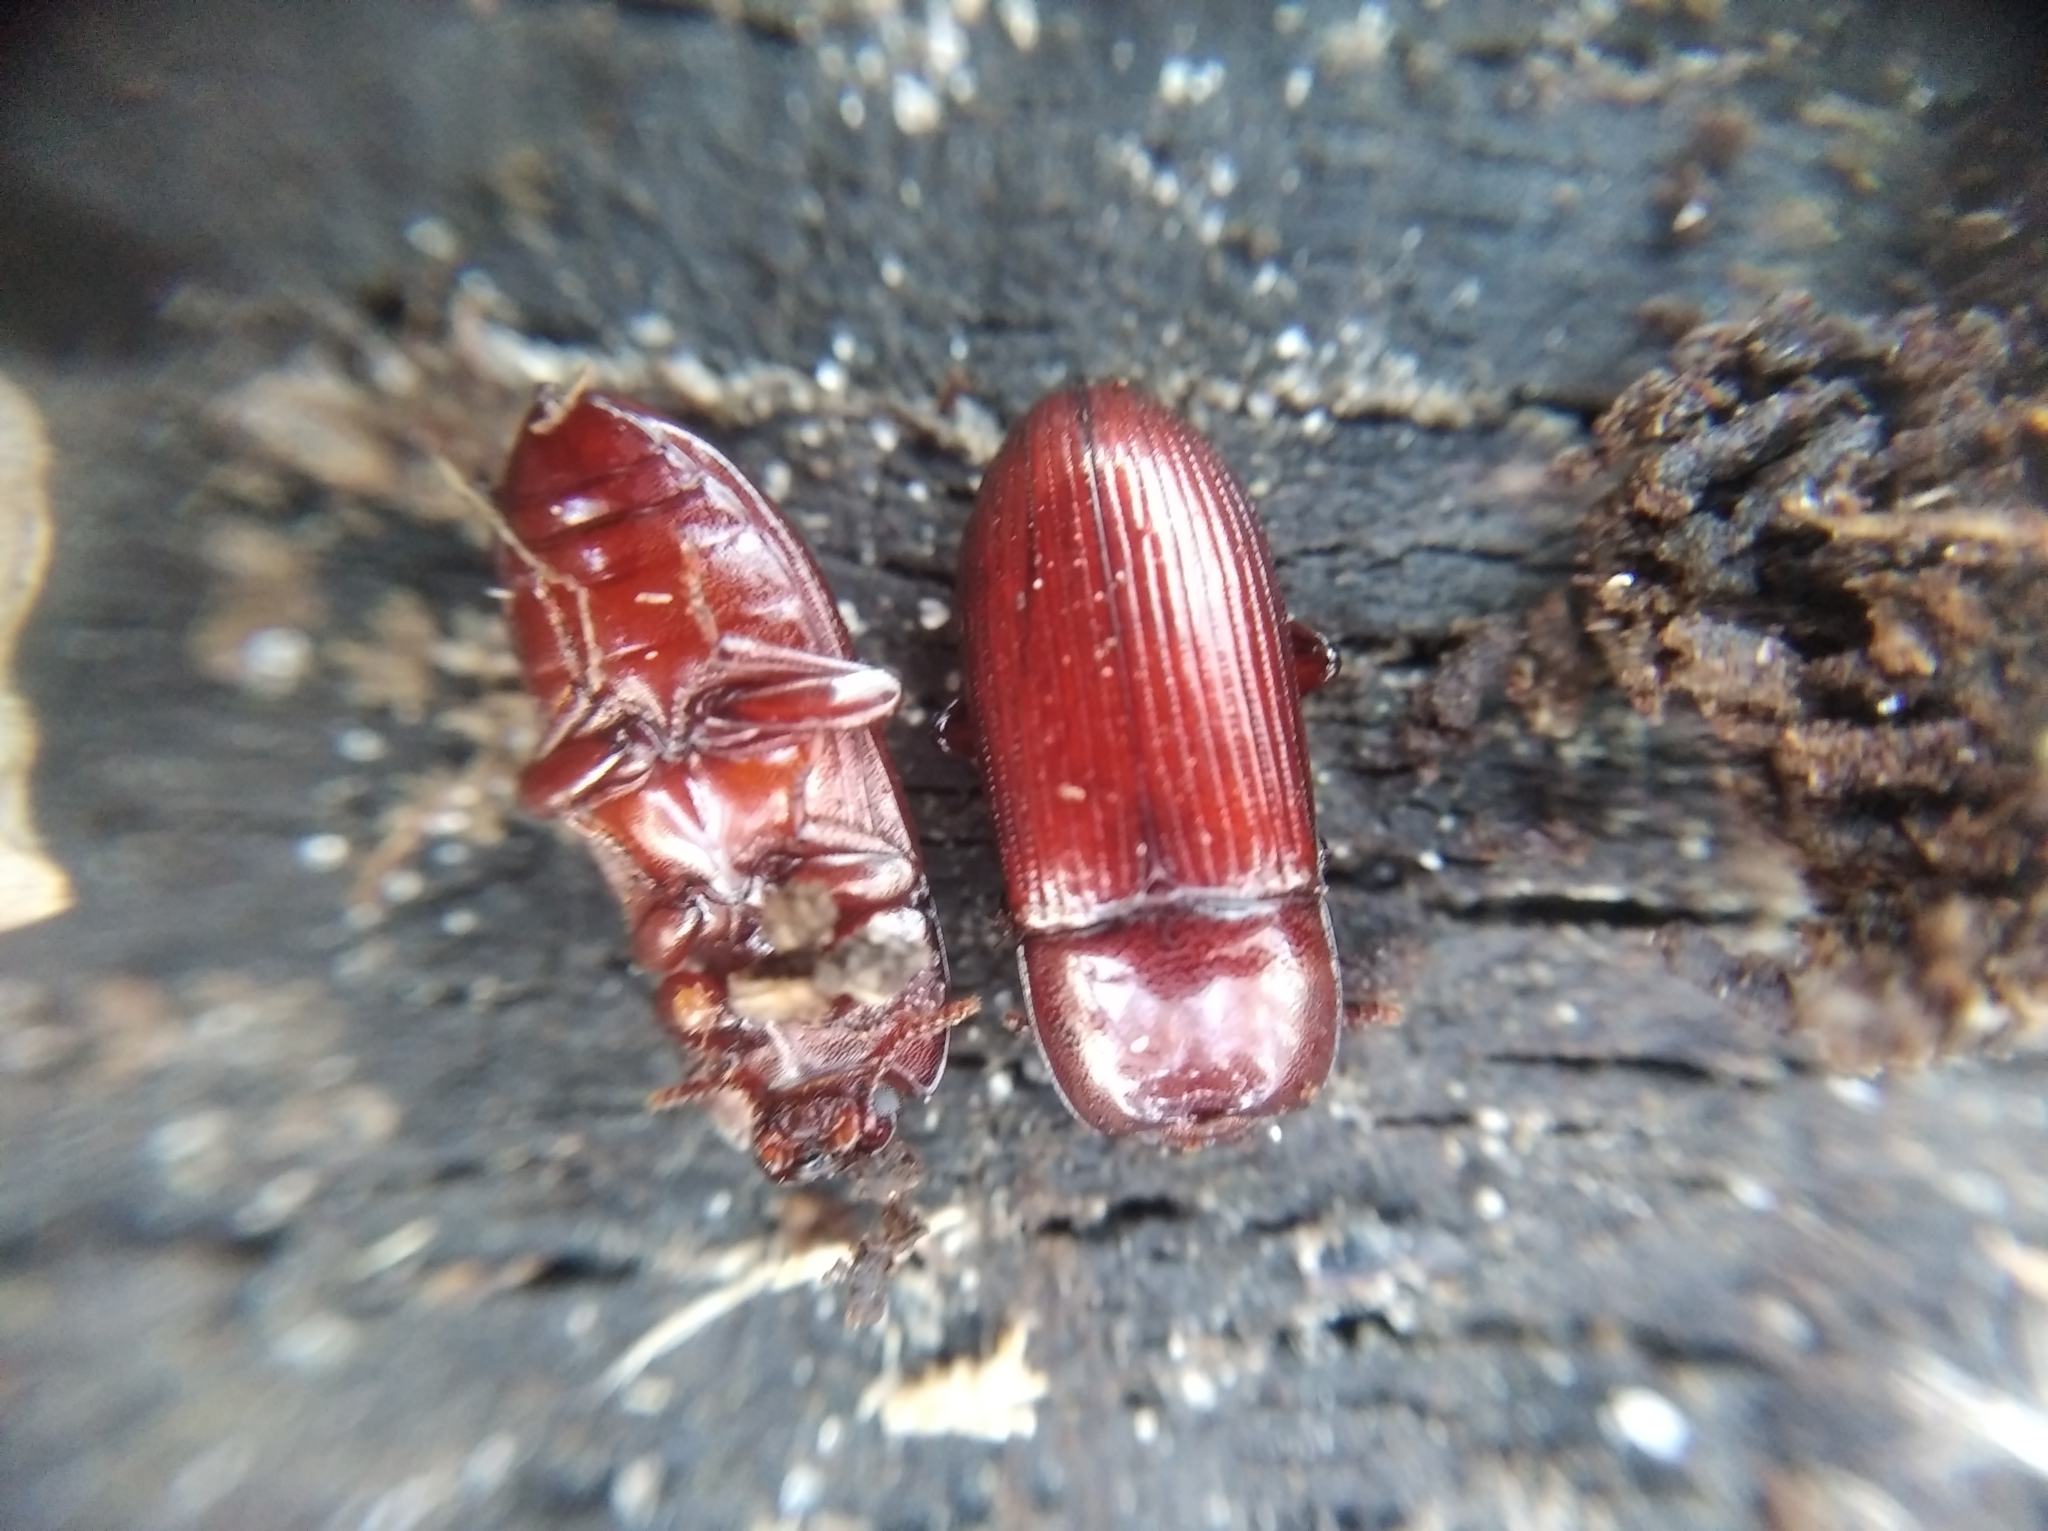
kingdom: Animalia
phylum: Arthropoda
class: Insecta
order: Coleoptera
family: Tenebrionidae
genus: Uloma
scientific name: Uloma culinaris
